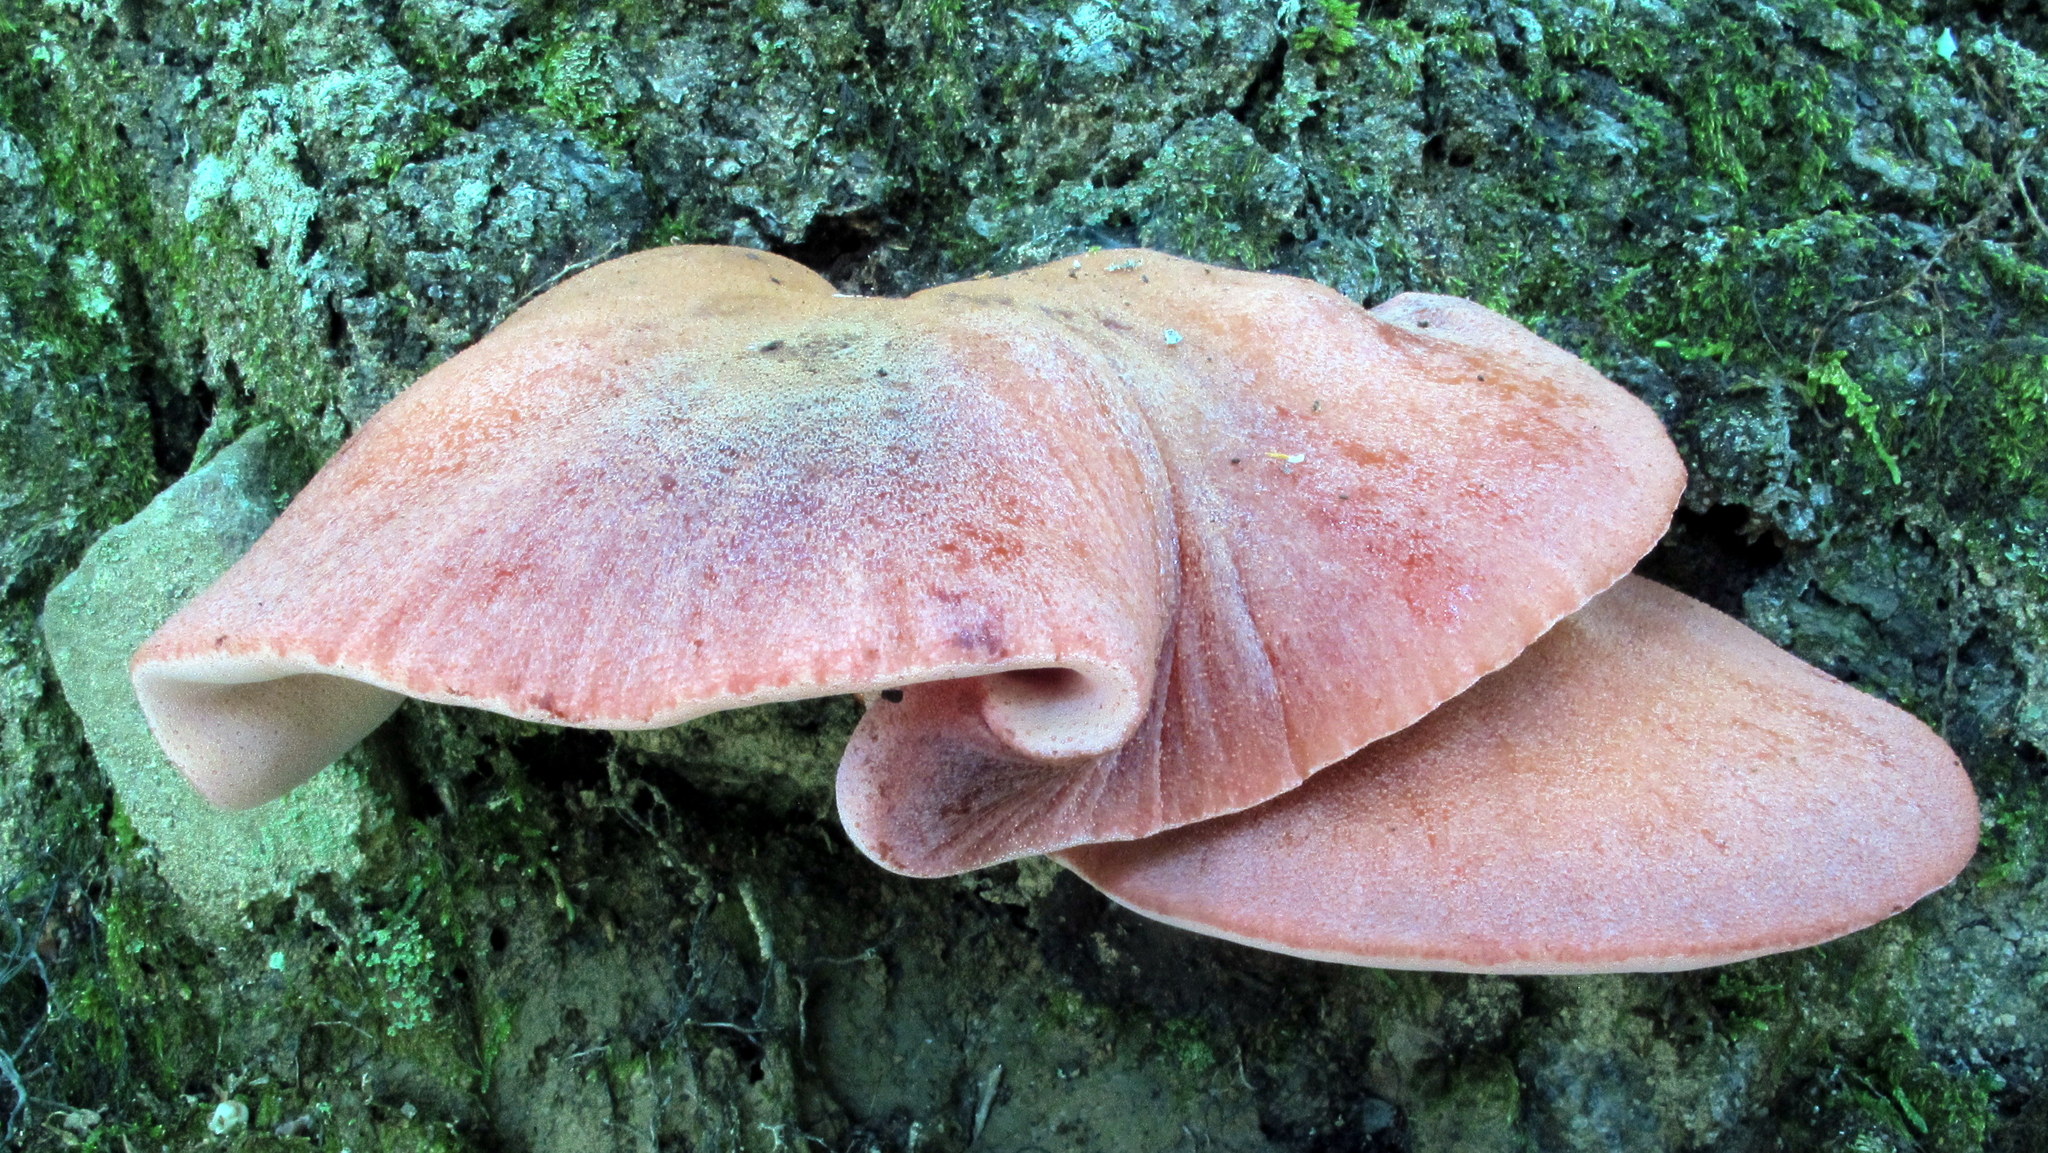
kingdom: Fungi
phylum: Basidiomycota
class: Agaricomycetes
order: Agaricales
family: Fistulinaceae
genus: Fistulina
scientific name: Fistulina hepatica
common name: Beef-steak fungus
